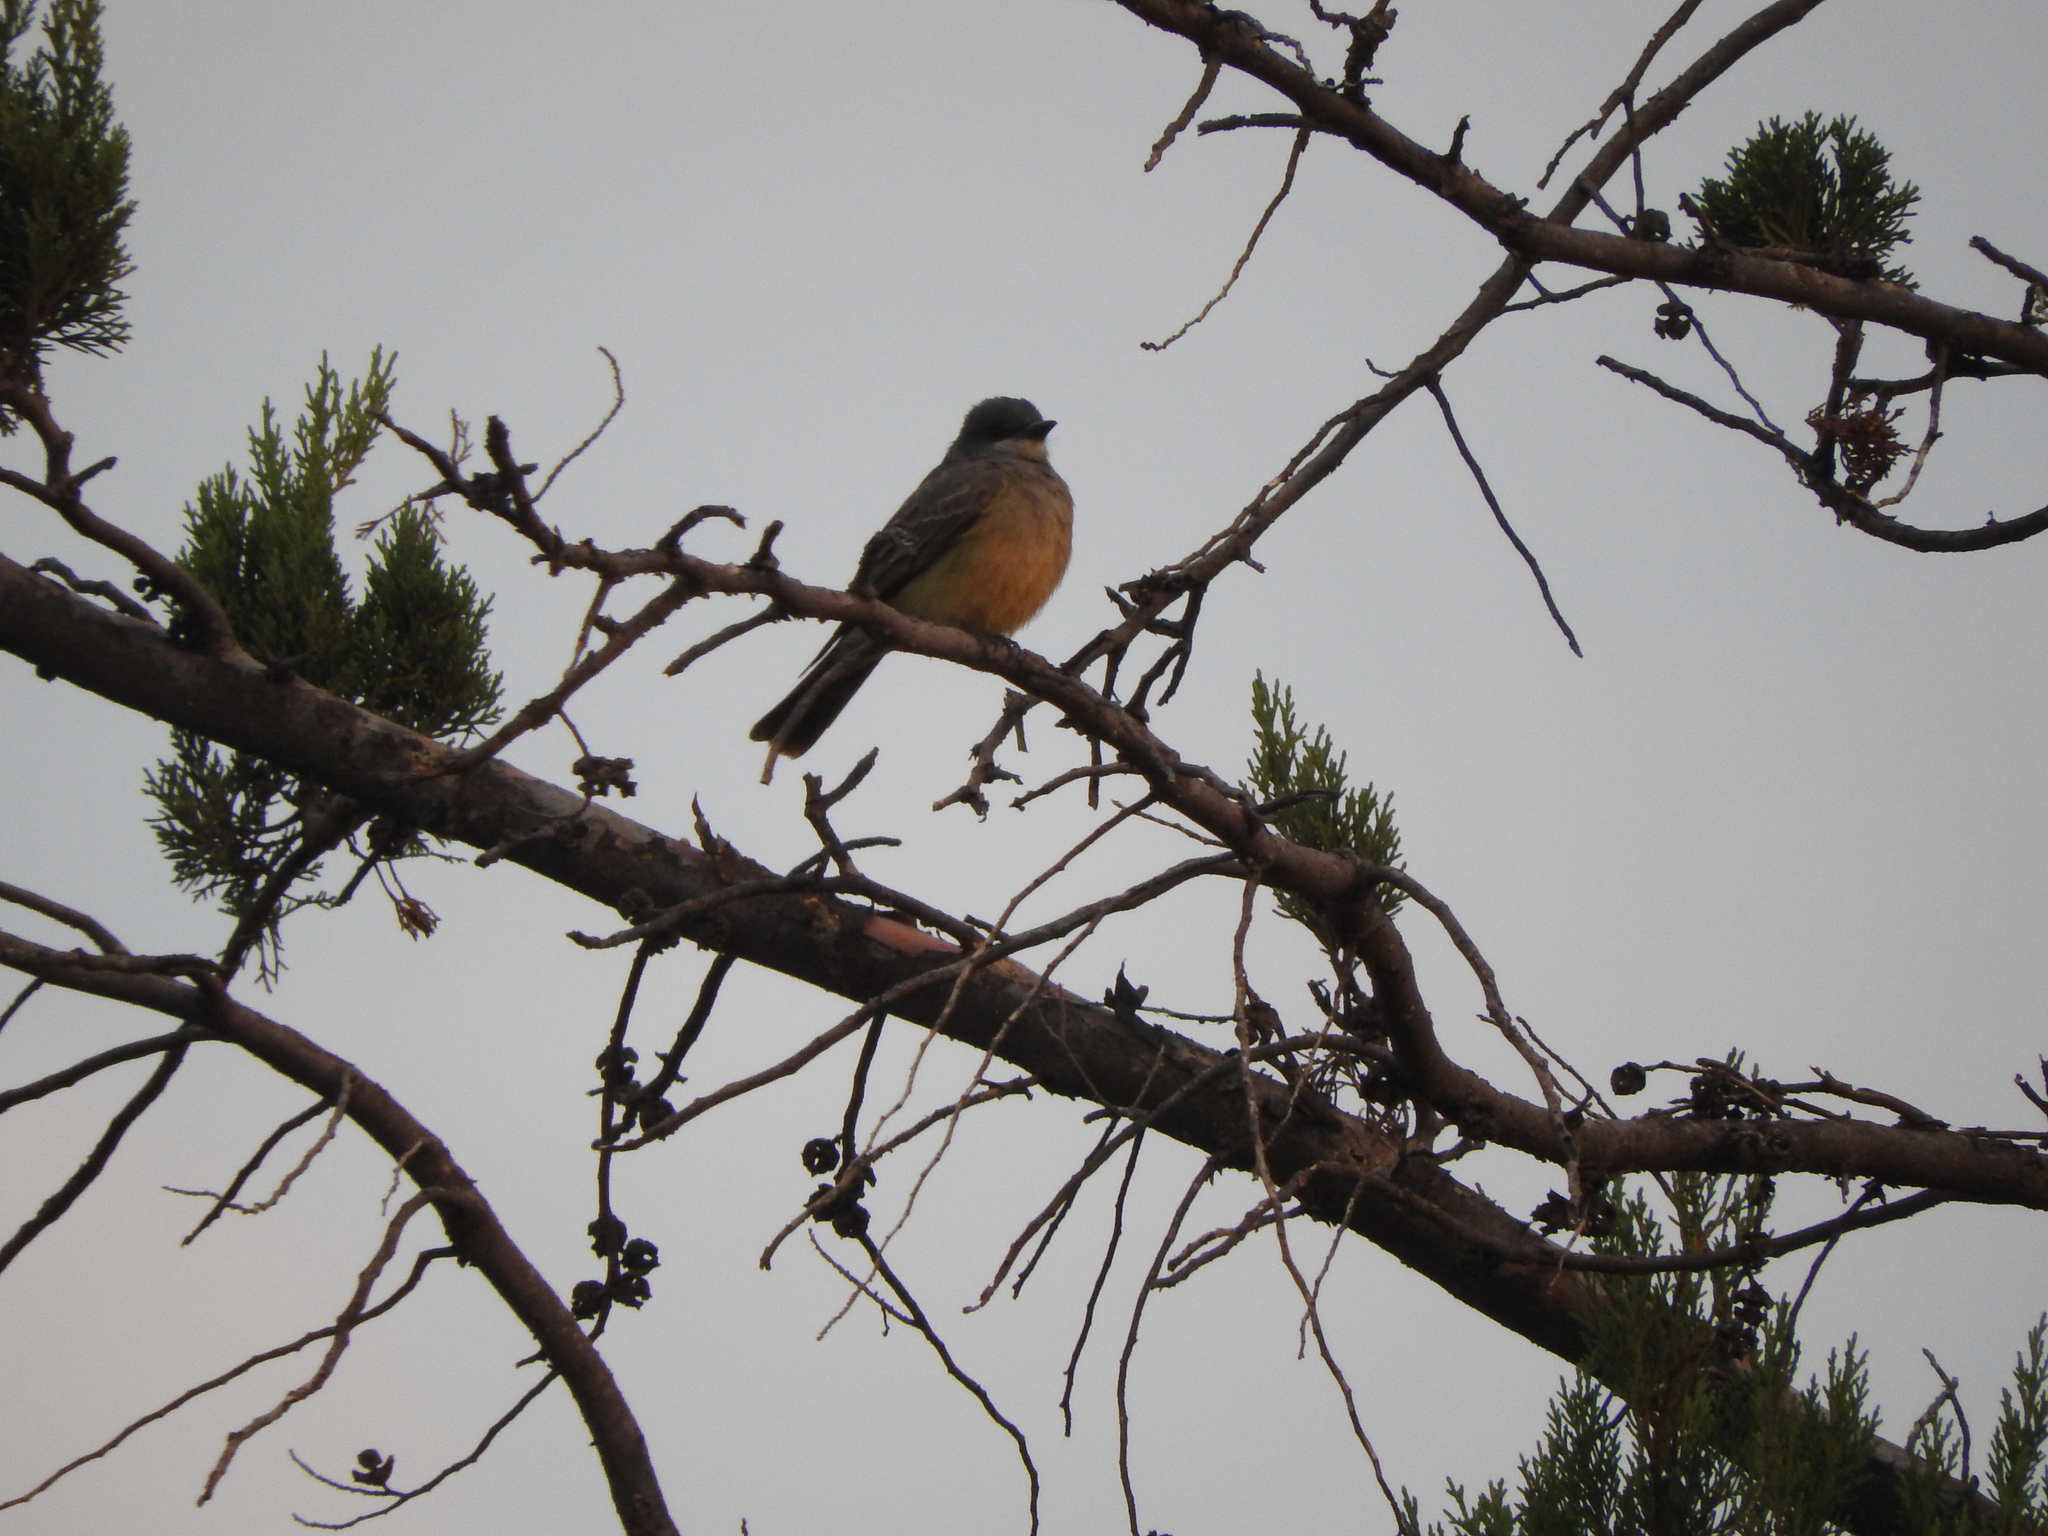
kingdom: Animalia
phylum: Chordata
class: Aves
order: Passeriformes
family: Tyrannidae
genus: Tyrannus
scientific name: Tyrannus vociferans
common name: Cassin's kingbird
